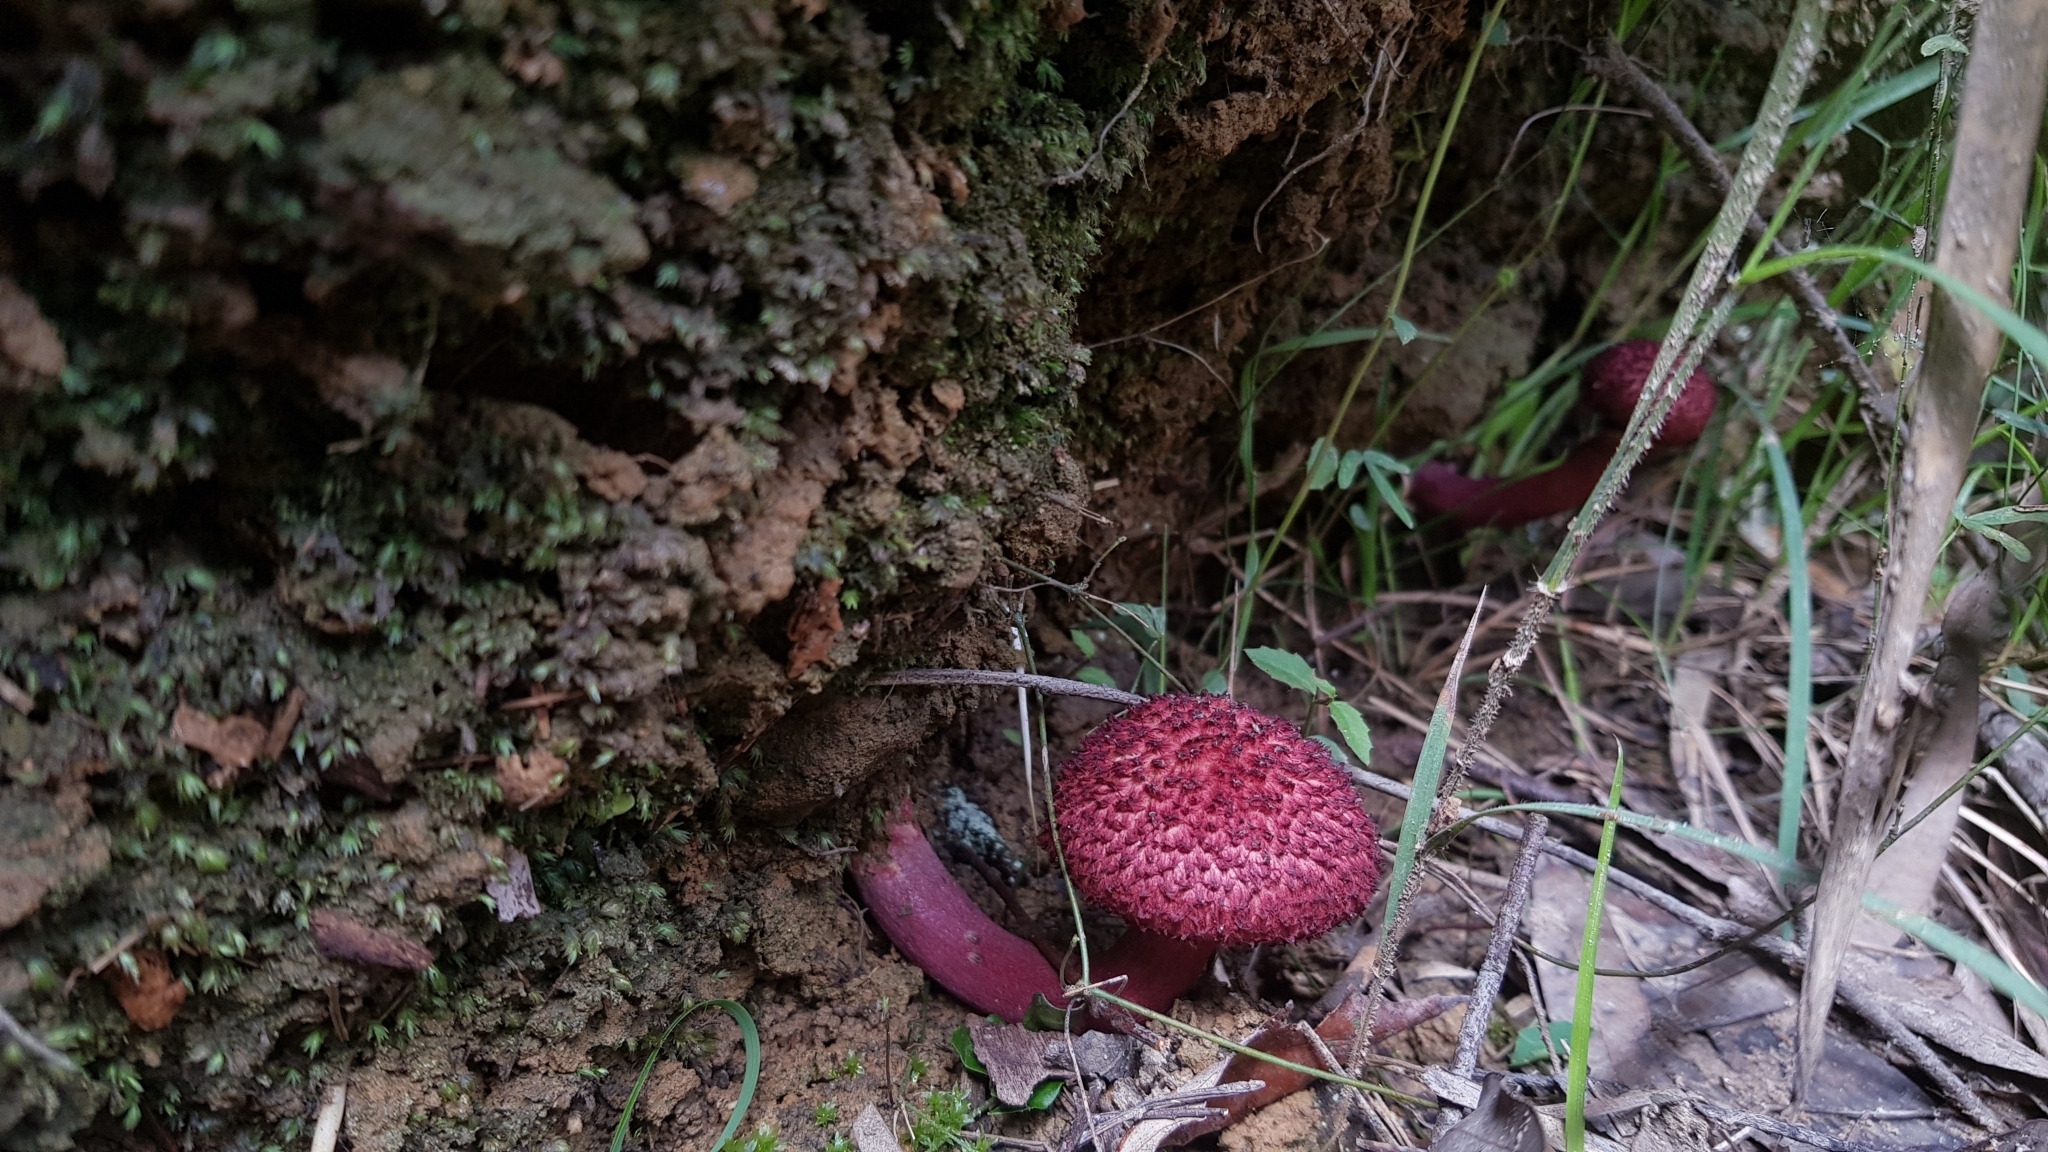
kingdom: Fungi
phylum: Basidiomycota
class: Agaricomycetes
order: Boletales
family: Boletaceae
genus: Boletellus
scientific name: Boletellus emodensis
